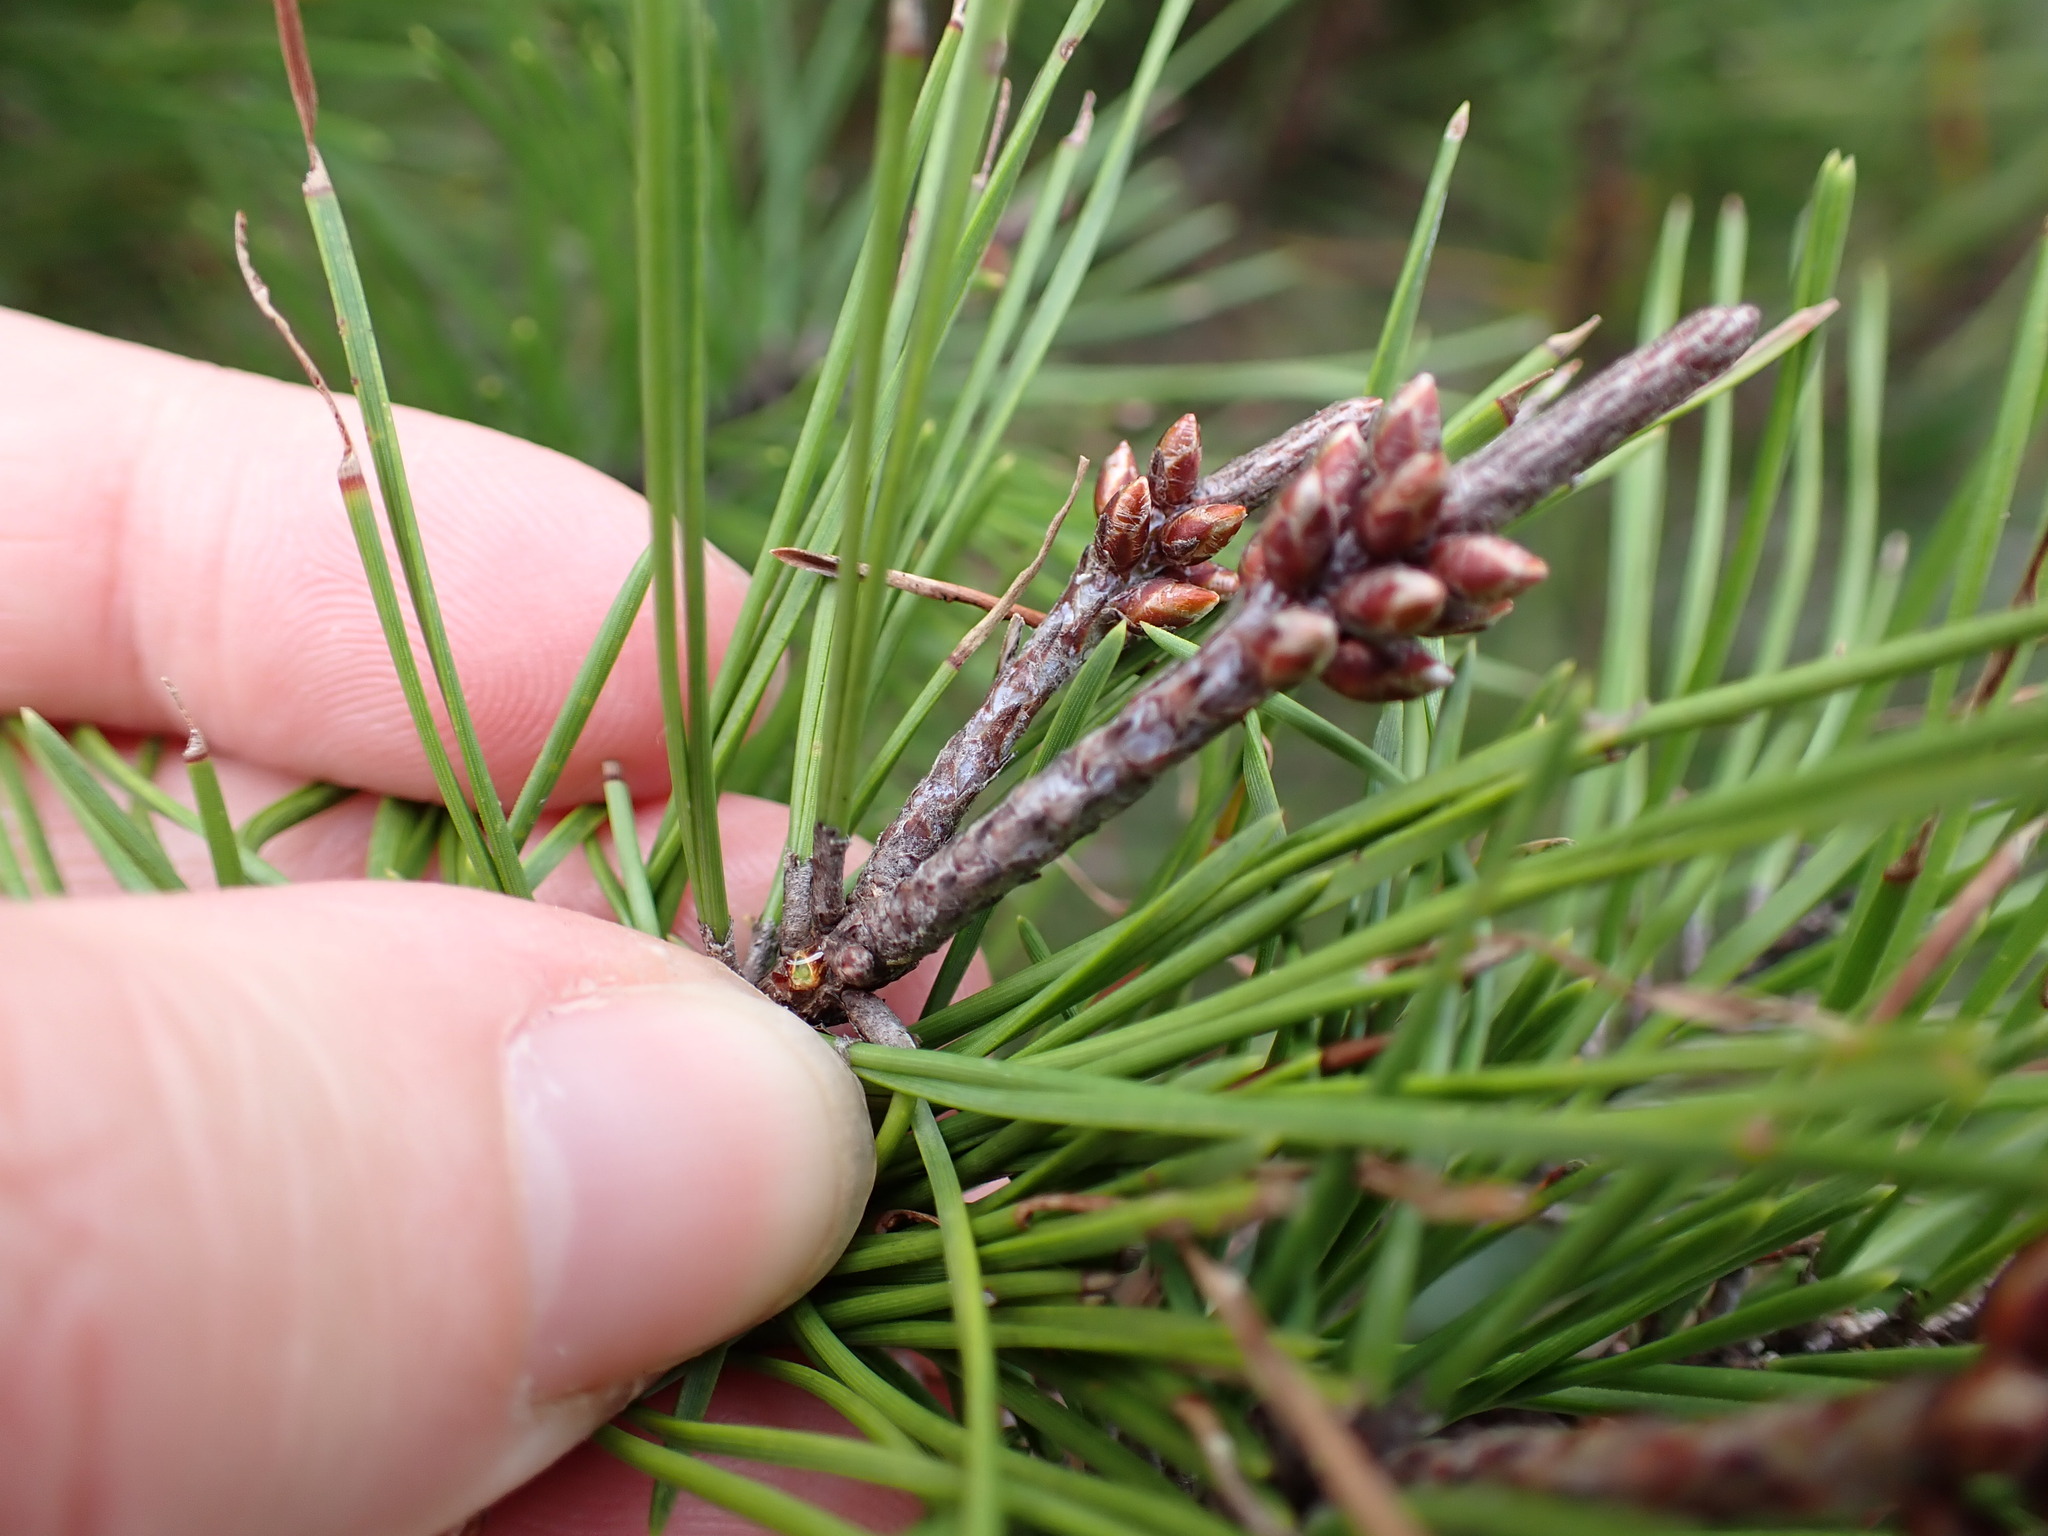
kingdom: Plantae
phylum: Tracheophyta
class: Pinopsida
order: Pinales
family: Pinaceae
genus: Pinus
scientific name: Pinus clausa
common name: Sand pine
